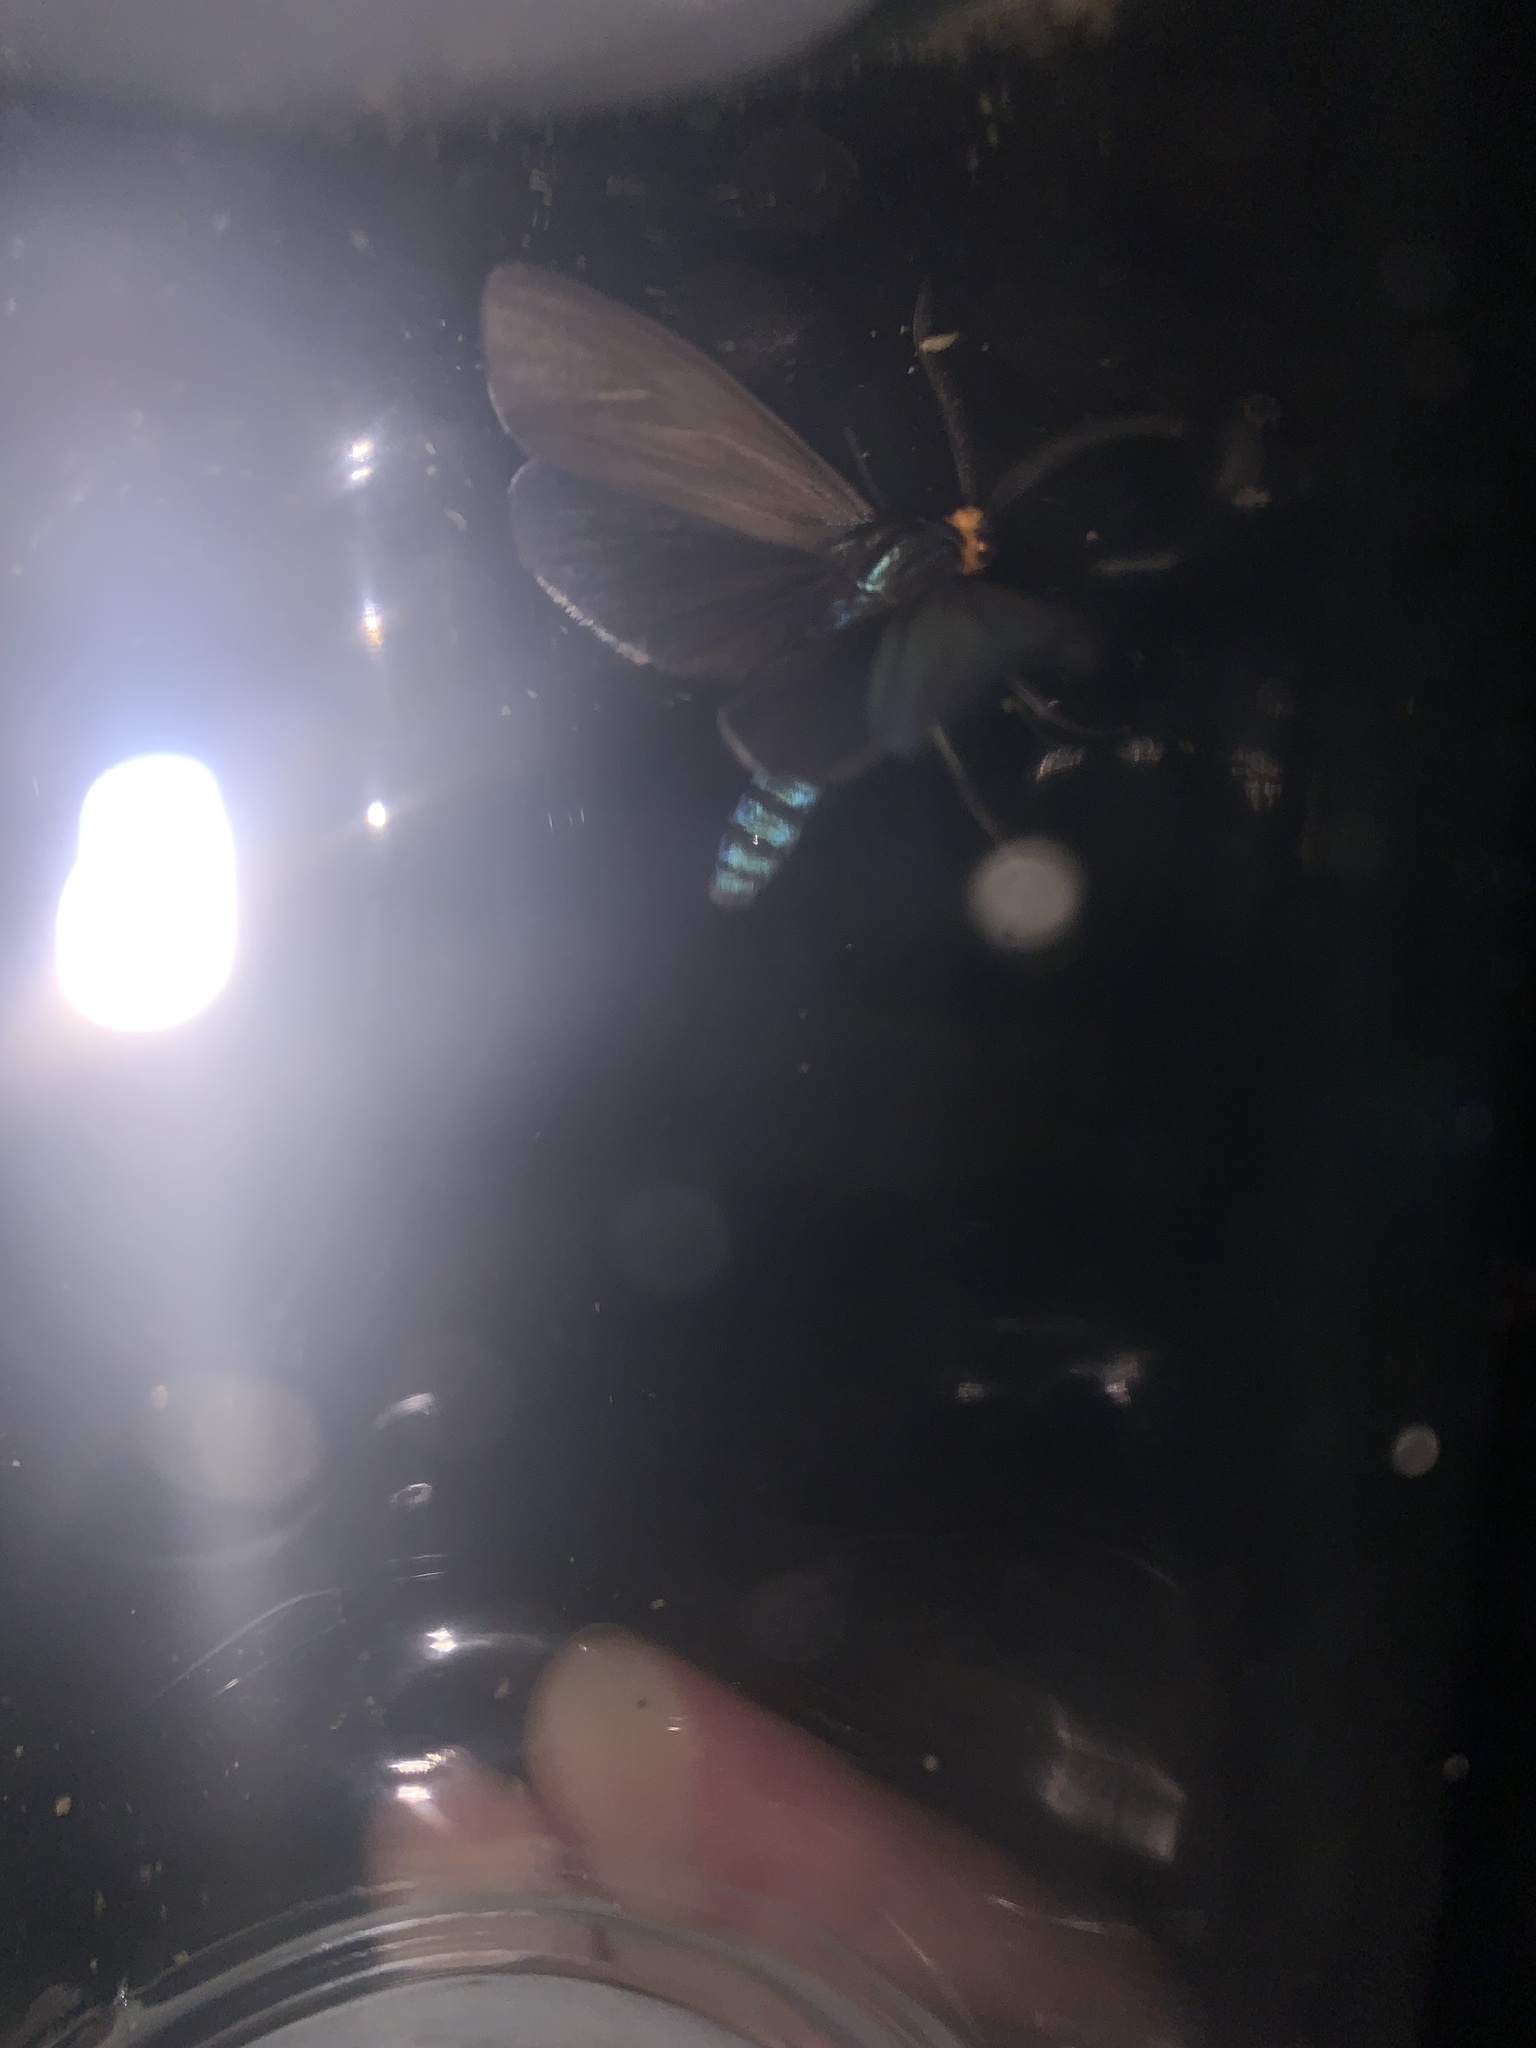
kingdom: Animalia
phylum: Arthropoda
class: Insecta
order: Lepidoptera
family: Erebidae
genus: Ctenucha
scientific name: Ctenucha virginica
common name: Virginia ctenucha moth
